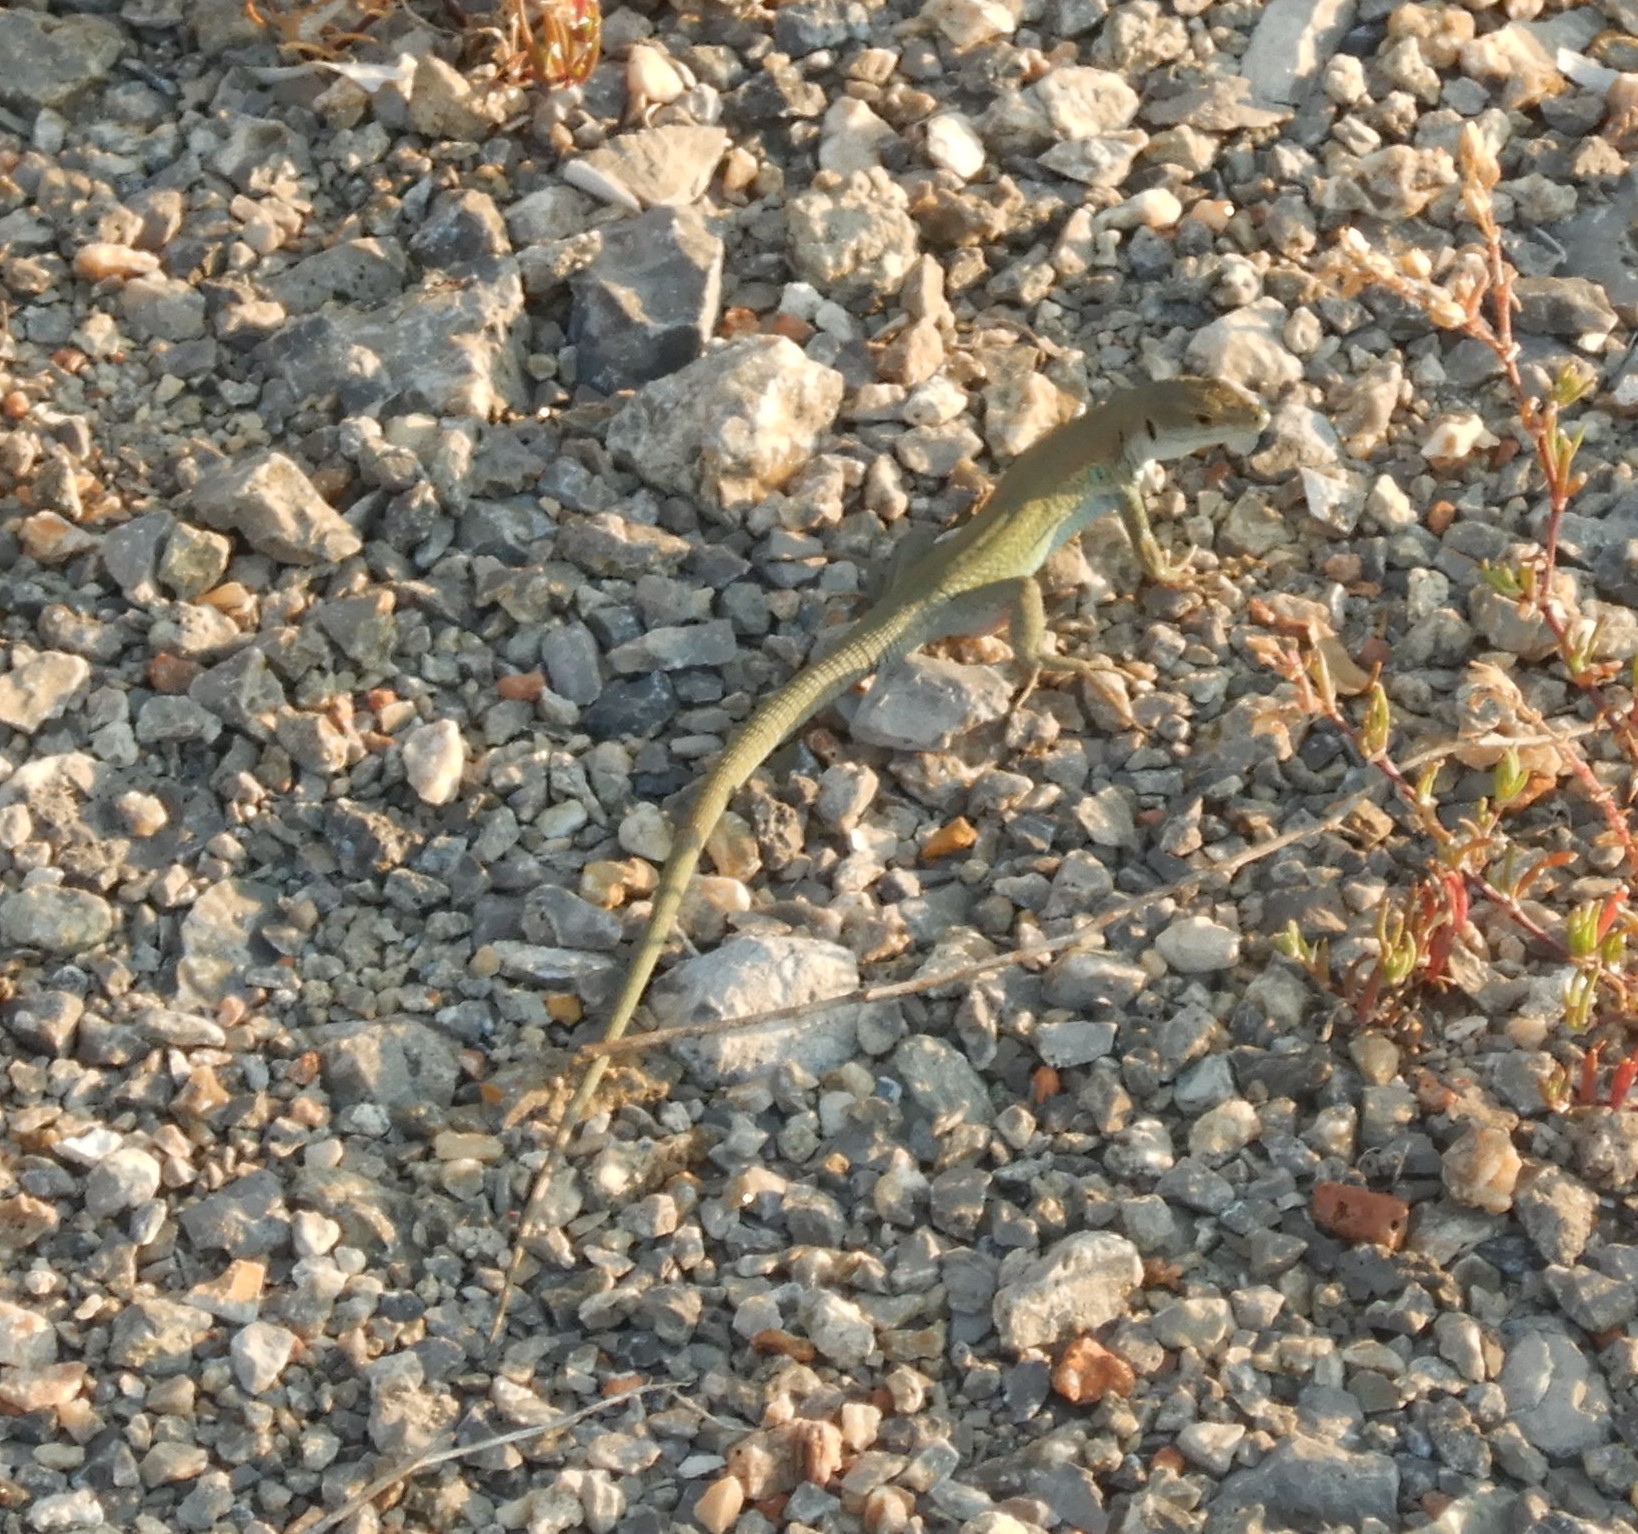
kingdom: Animalia
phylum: Chordata
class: Squamata
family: Lacertidae
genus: Podarcis
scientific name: Podarcis siculus
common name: Italian wall lizard
